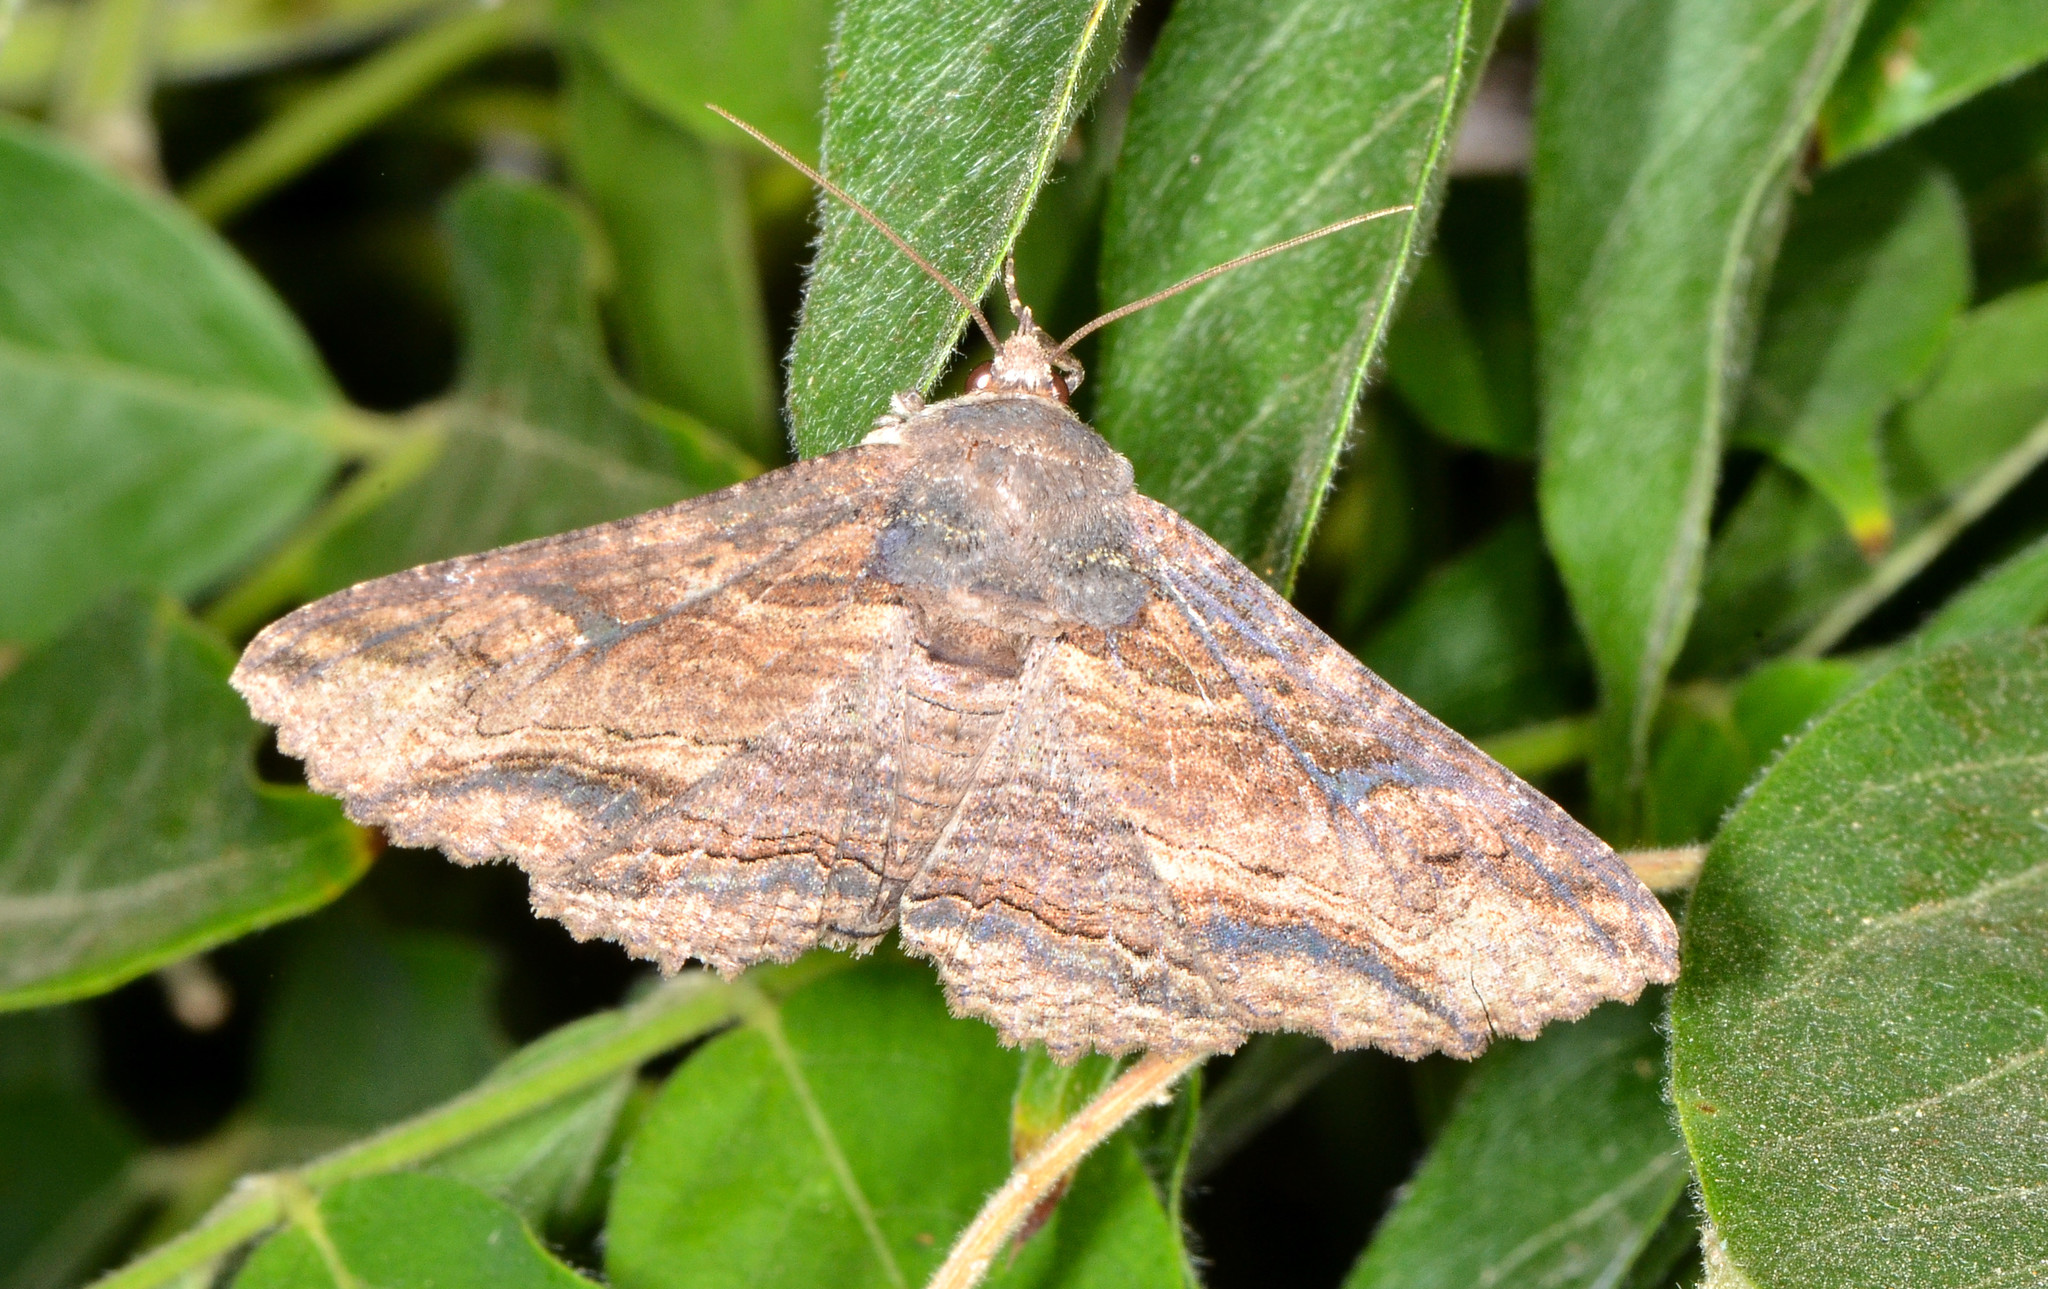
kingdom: Animalia
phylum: Arthropoda
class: Insecta
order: Lepidoptera
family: Erebidae
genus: Zale
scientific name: Zale lunata
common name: Lunate zale moth
